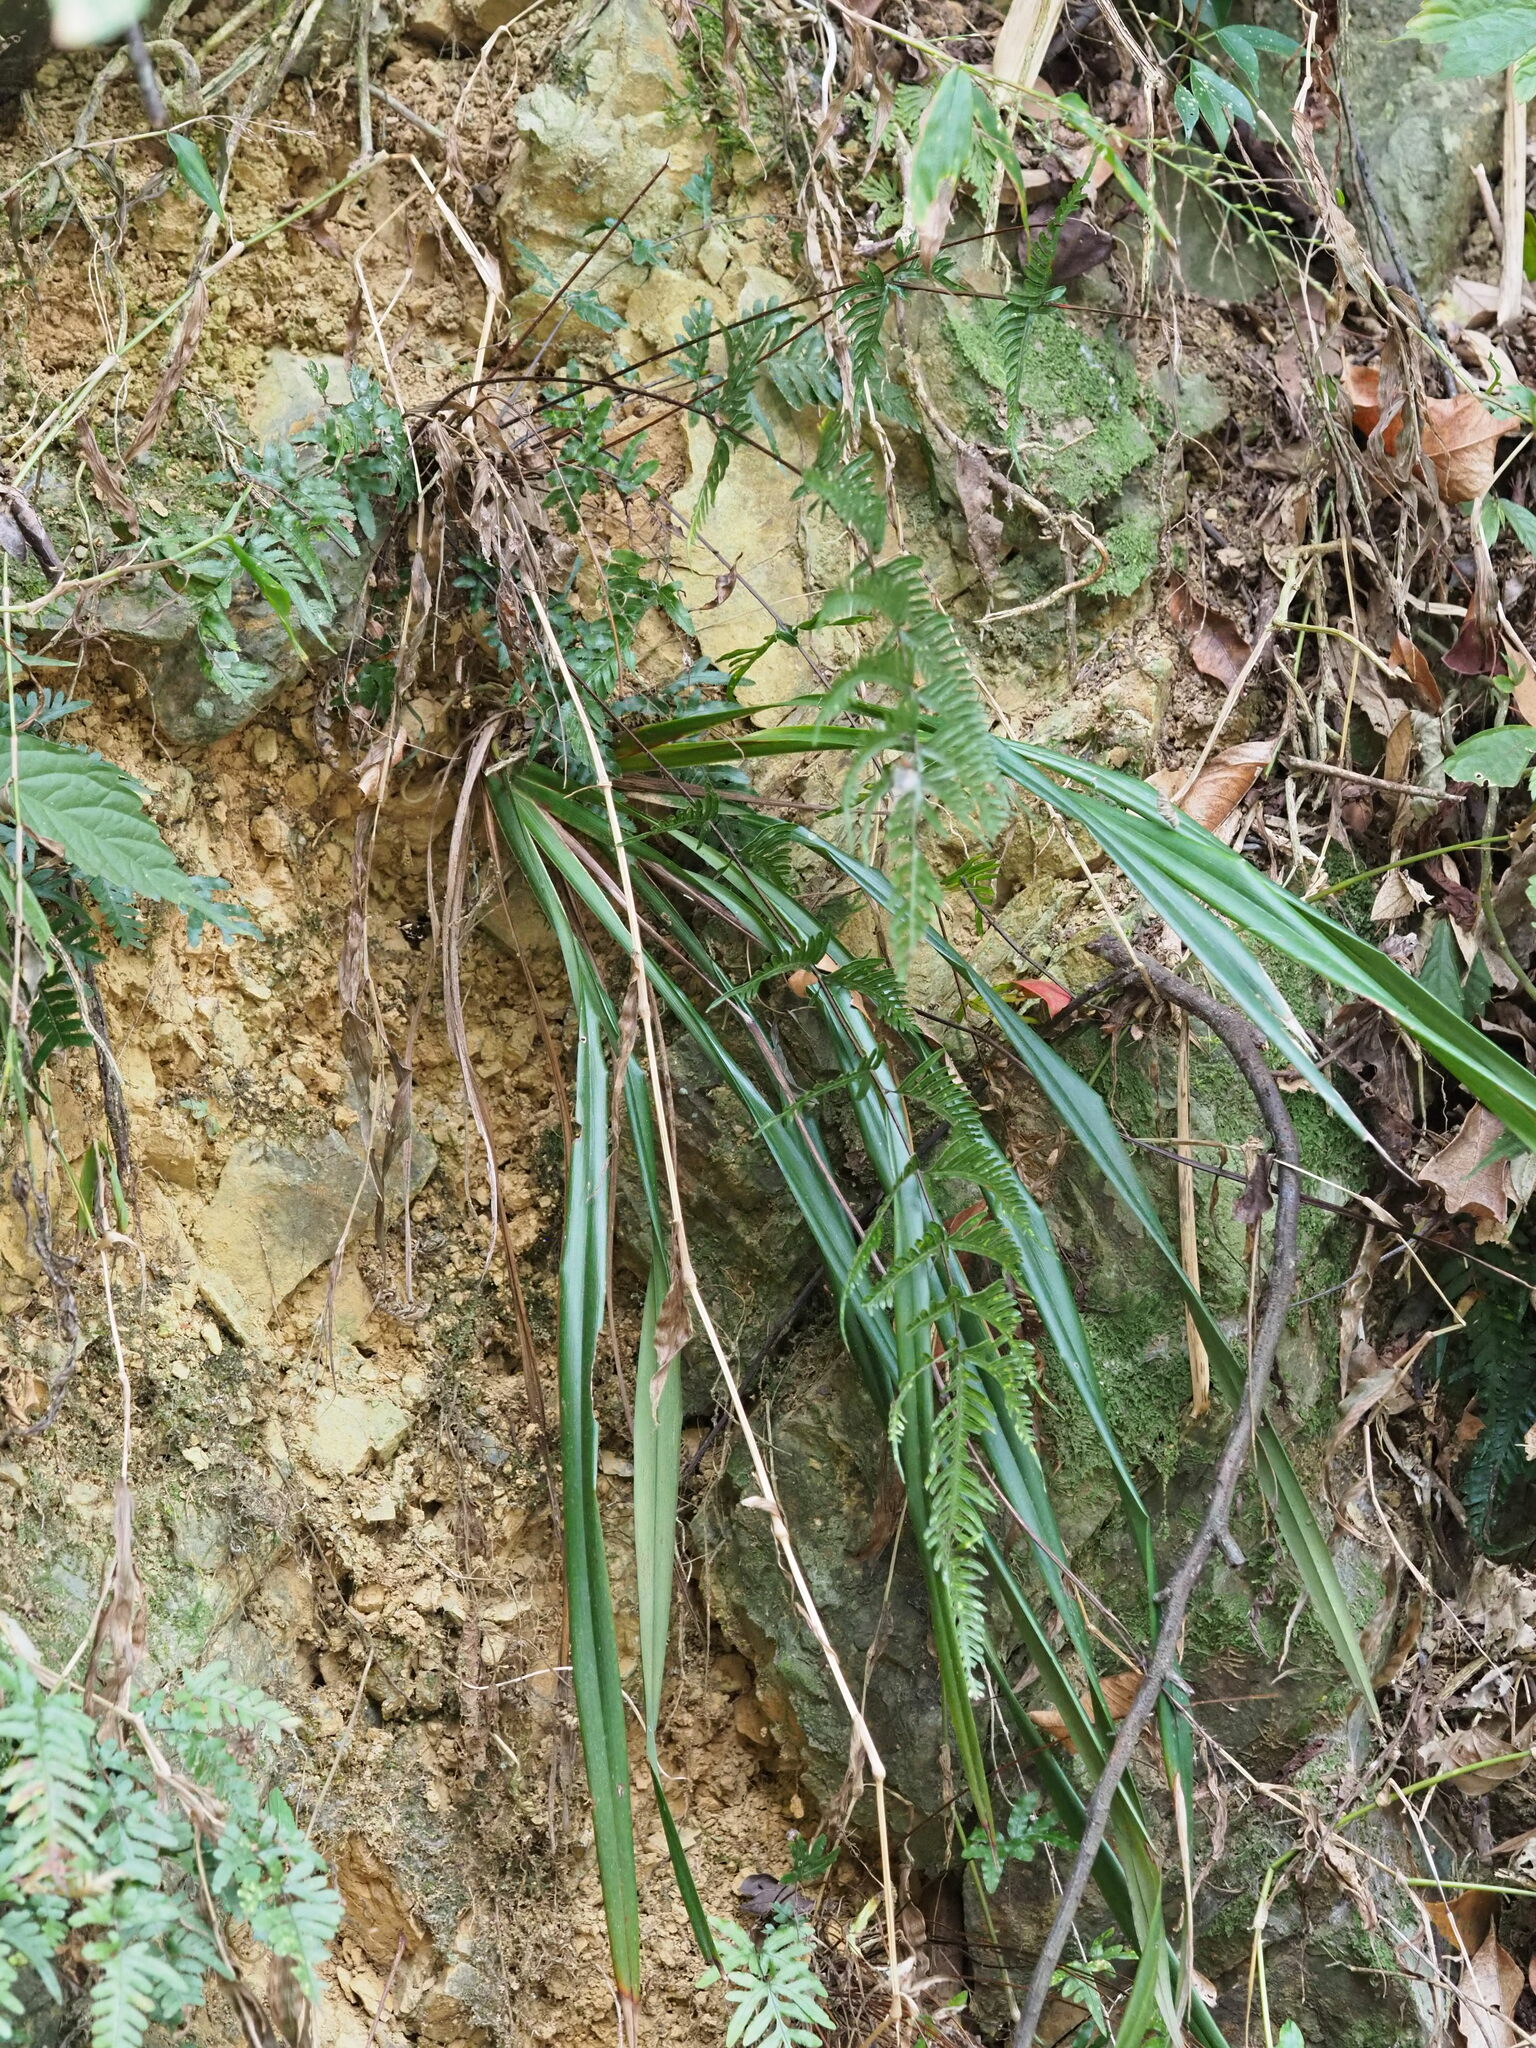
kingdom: Plantae
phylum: Tracheophyta
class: Liliopsida
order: Asparagales
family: Asphodelaceae
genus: Dianella
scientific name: Dianella ensifolia
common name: New zealand lilyplant
